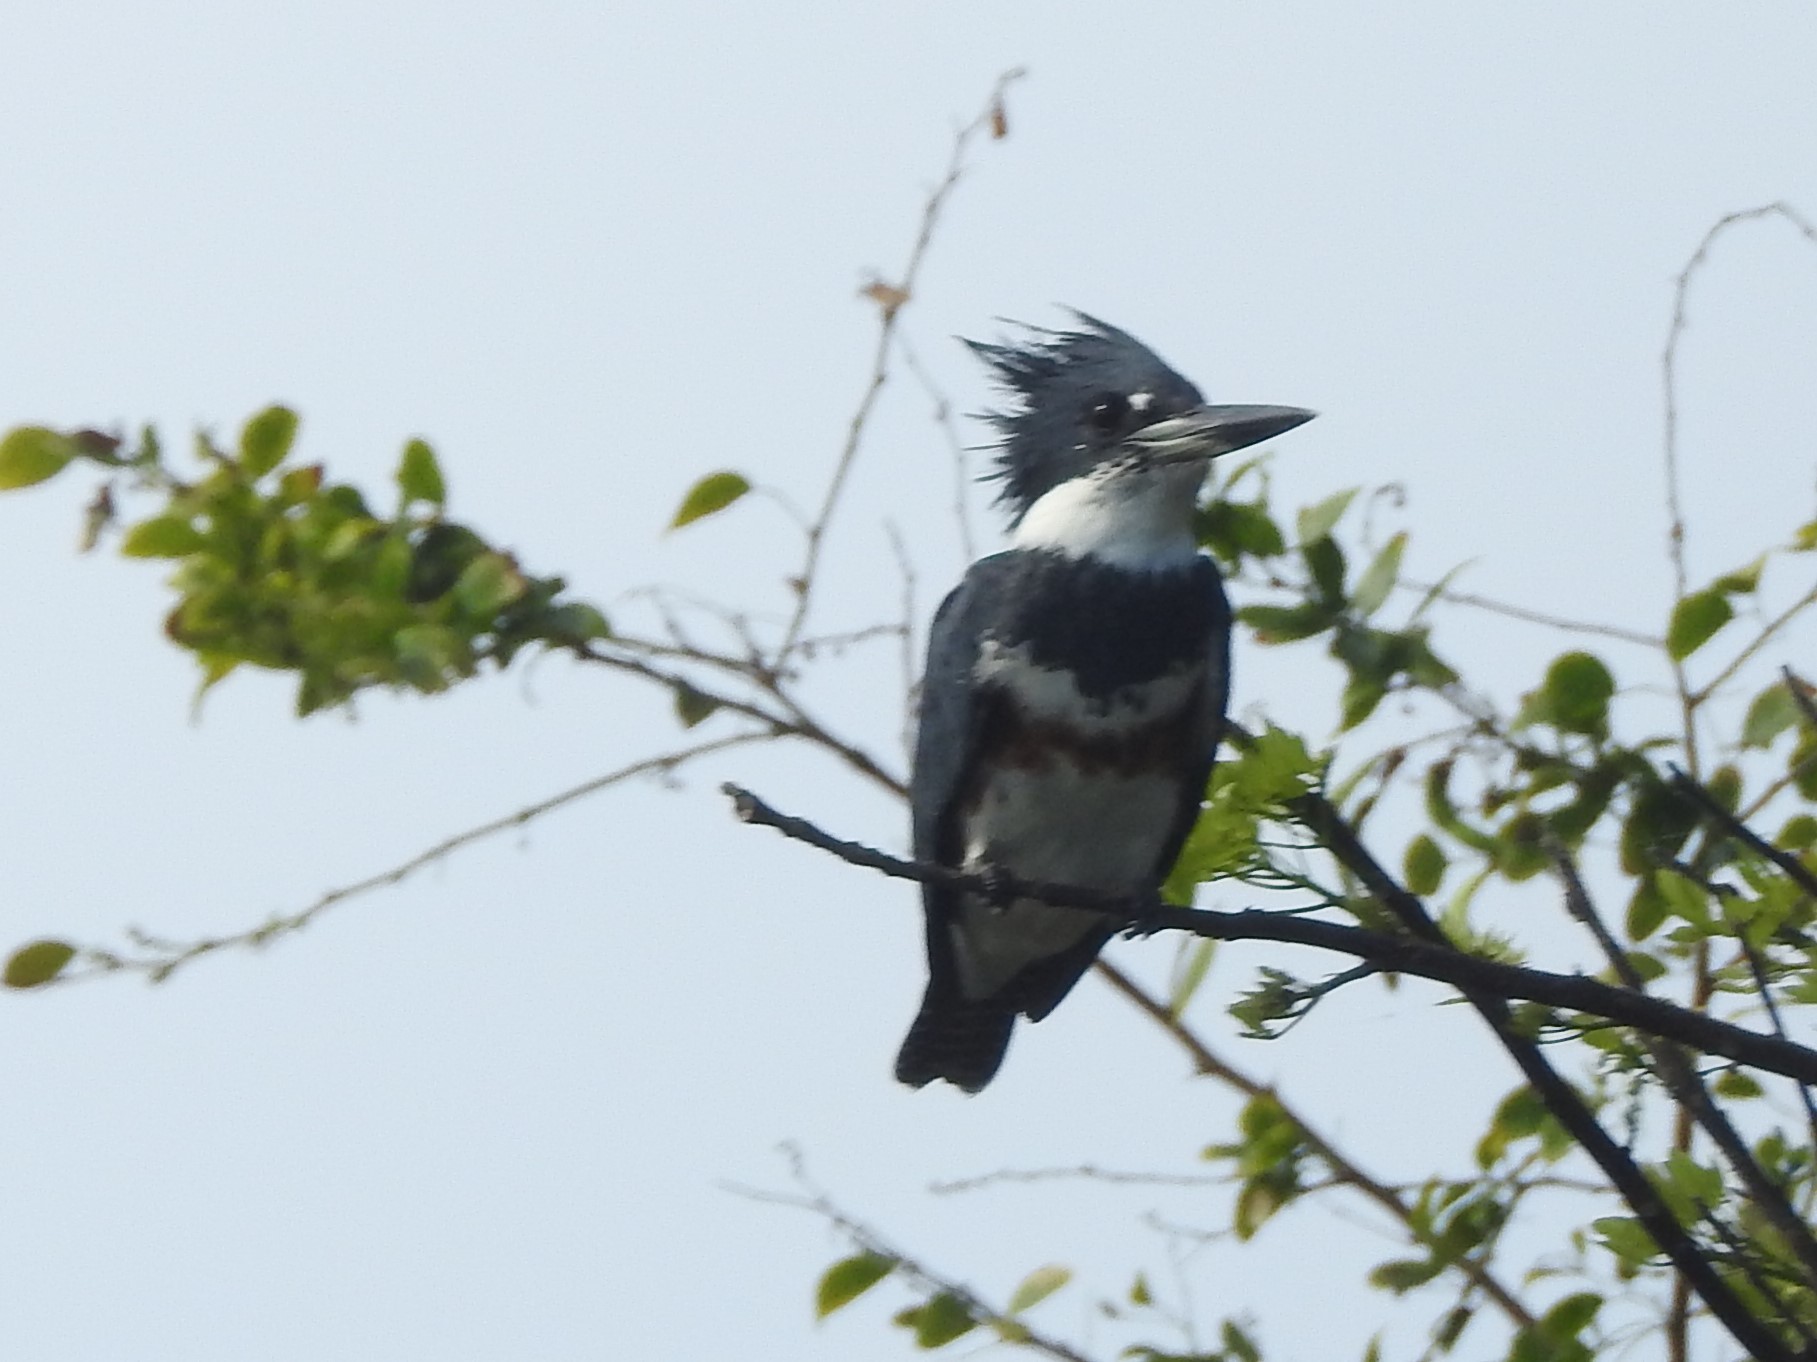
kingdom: Animalia
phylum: Chordata
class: Aves
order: Coraciiformes
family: Alcedinidae
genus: Megaceryle
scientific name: Megaceryle alcyon
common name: Belted kingfisher
